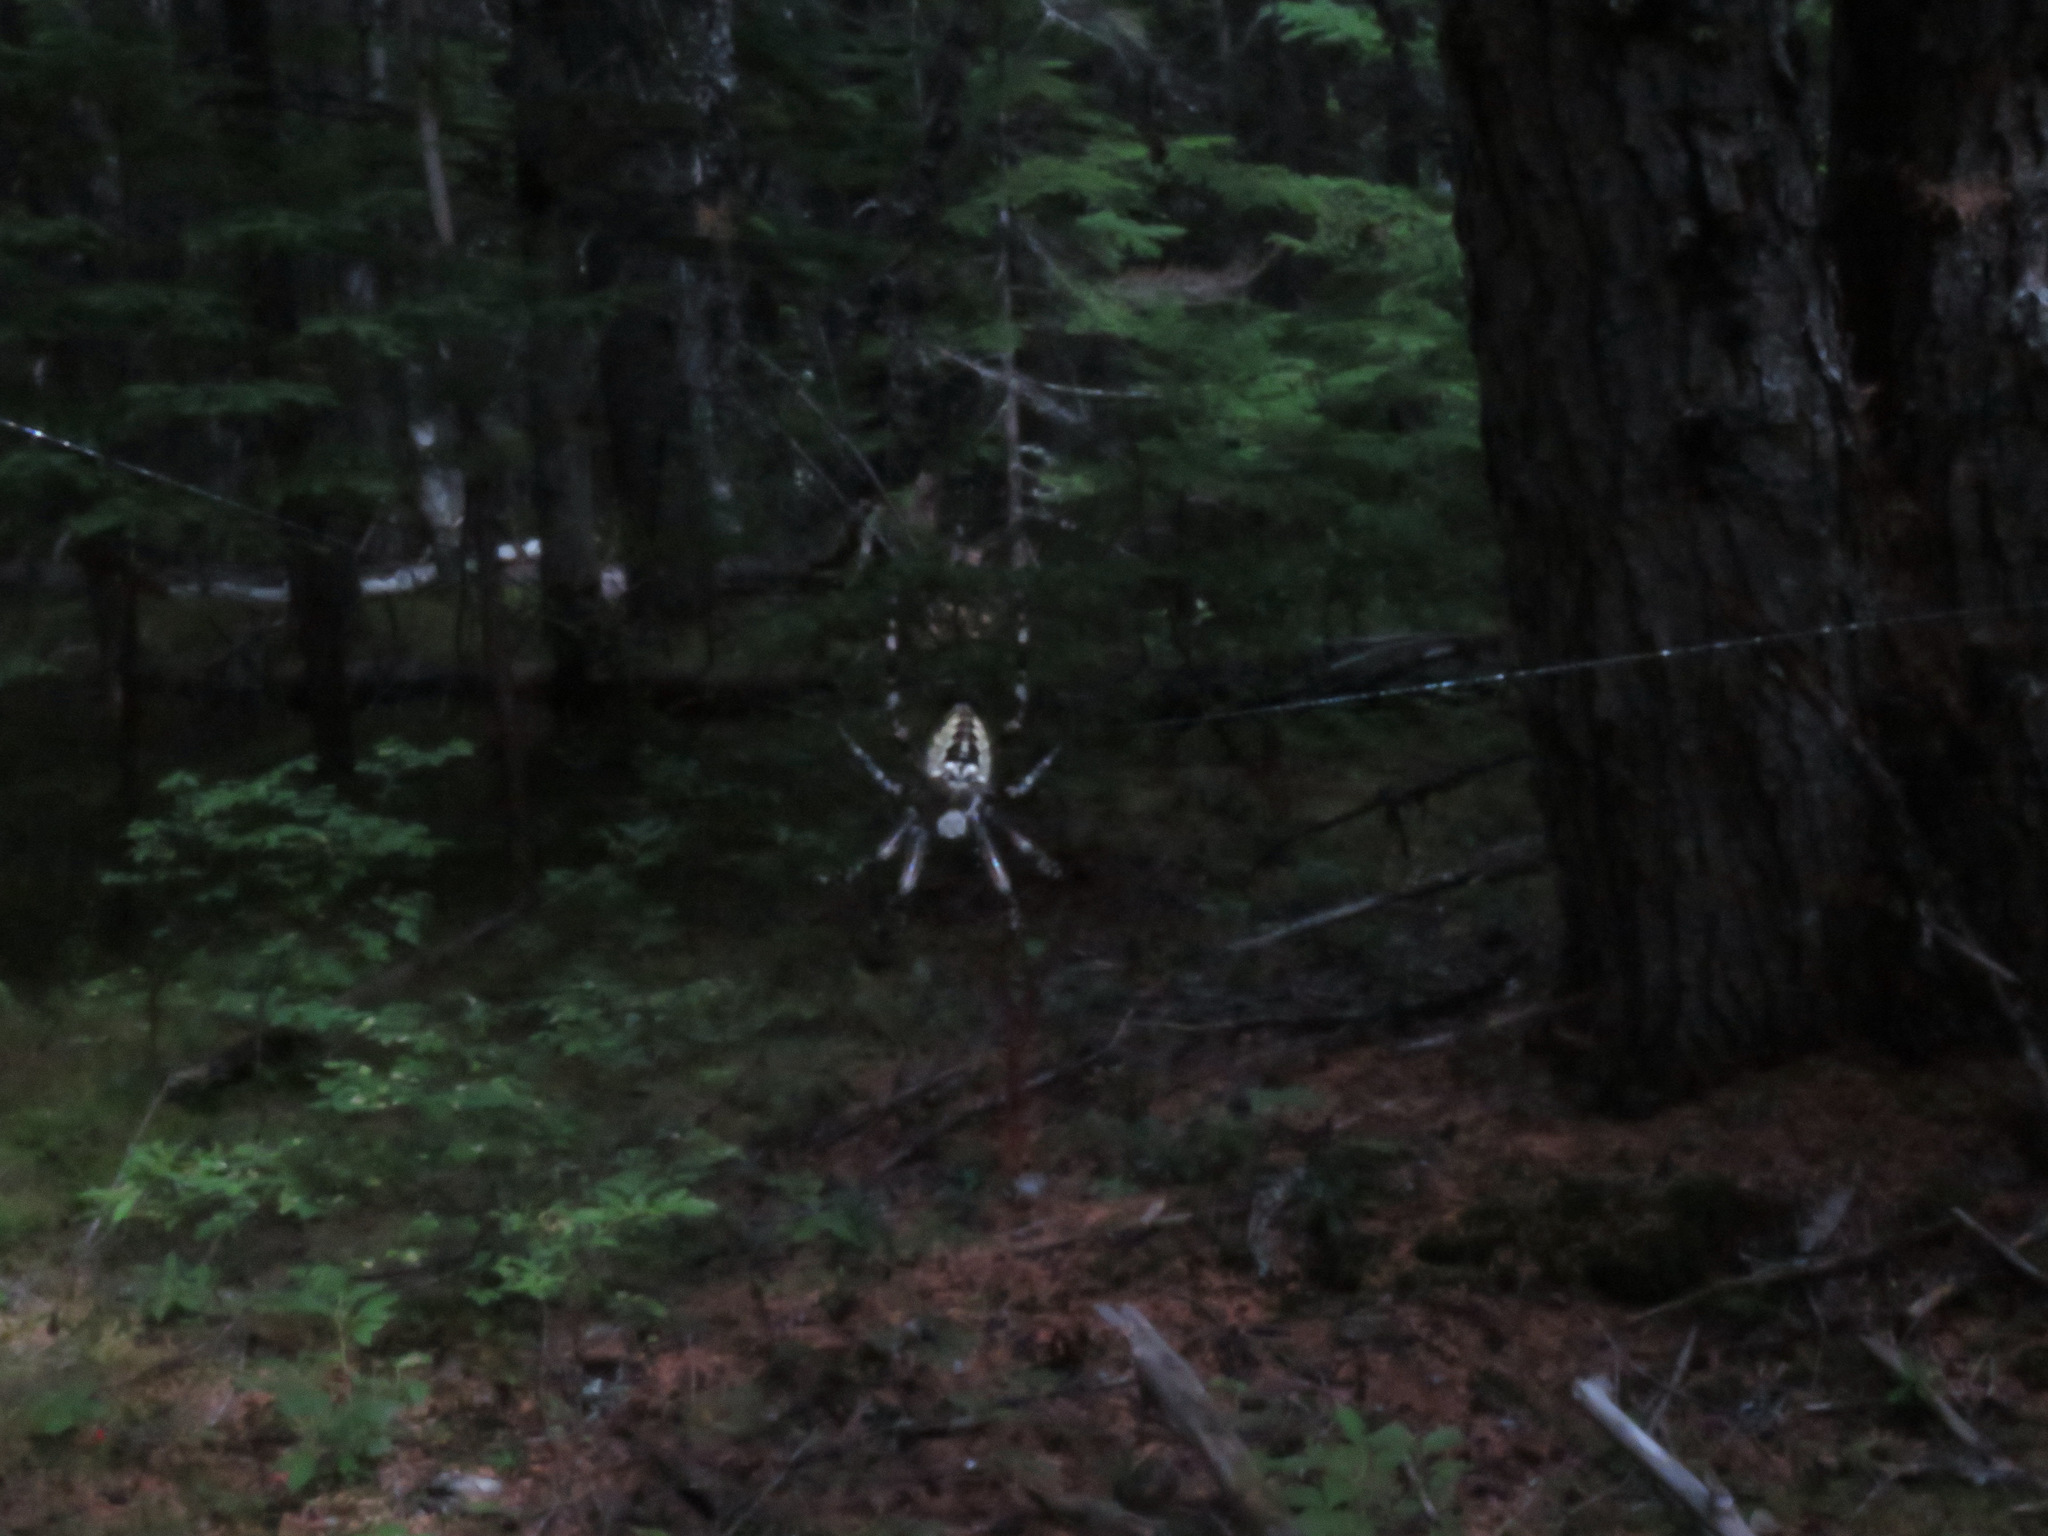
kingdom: Animalia
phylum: Arthropoda
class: Arachnida
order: Araneae
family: Araneidae
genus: Araneus
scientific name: Araneus nordmanni
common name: Nordmann's orbweaver
